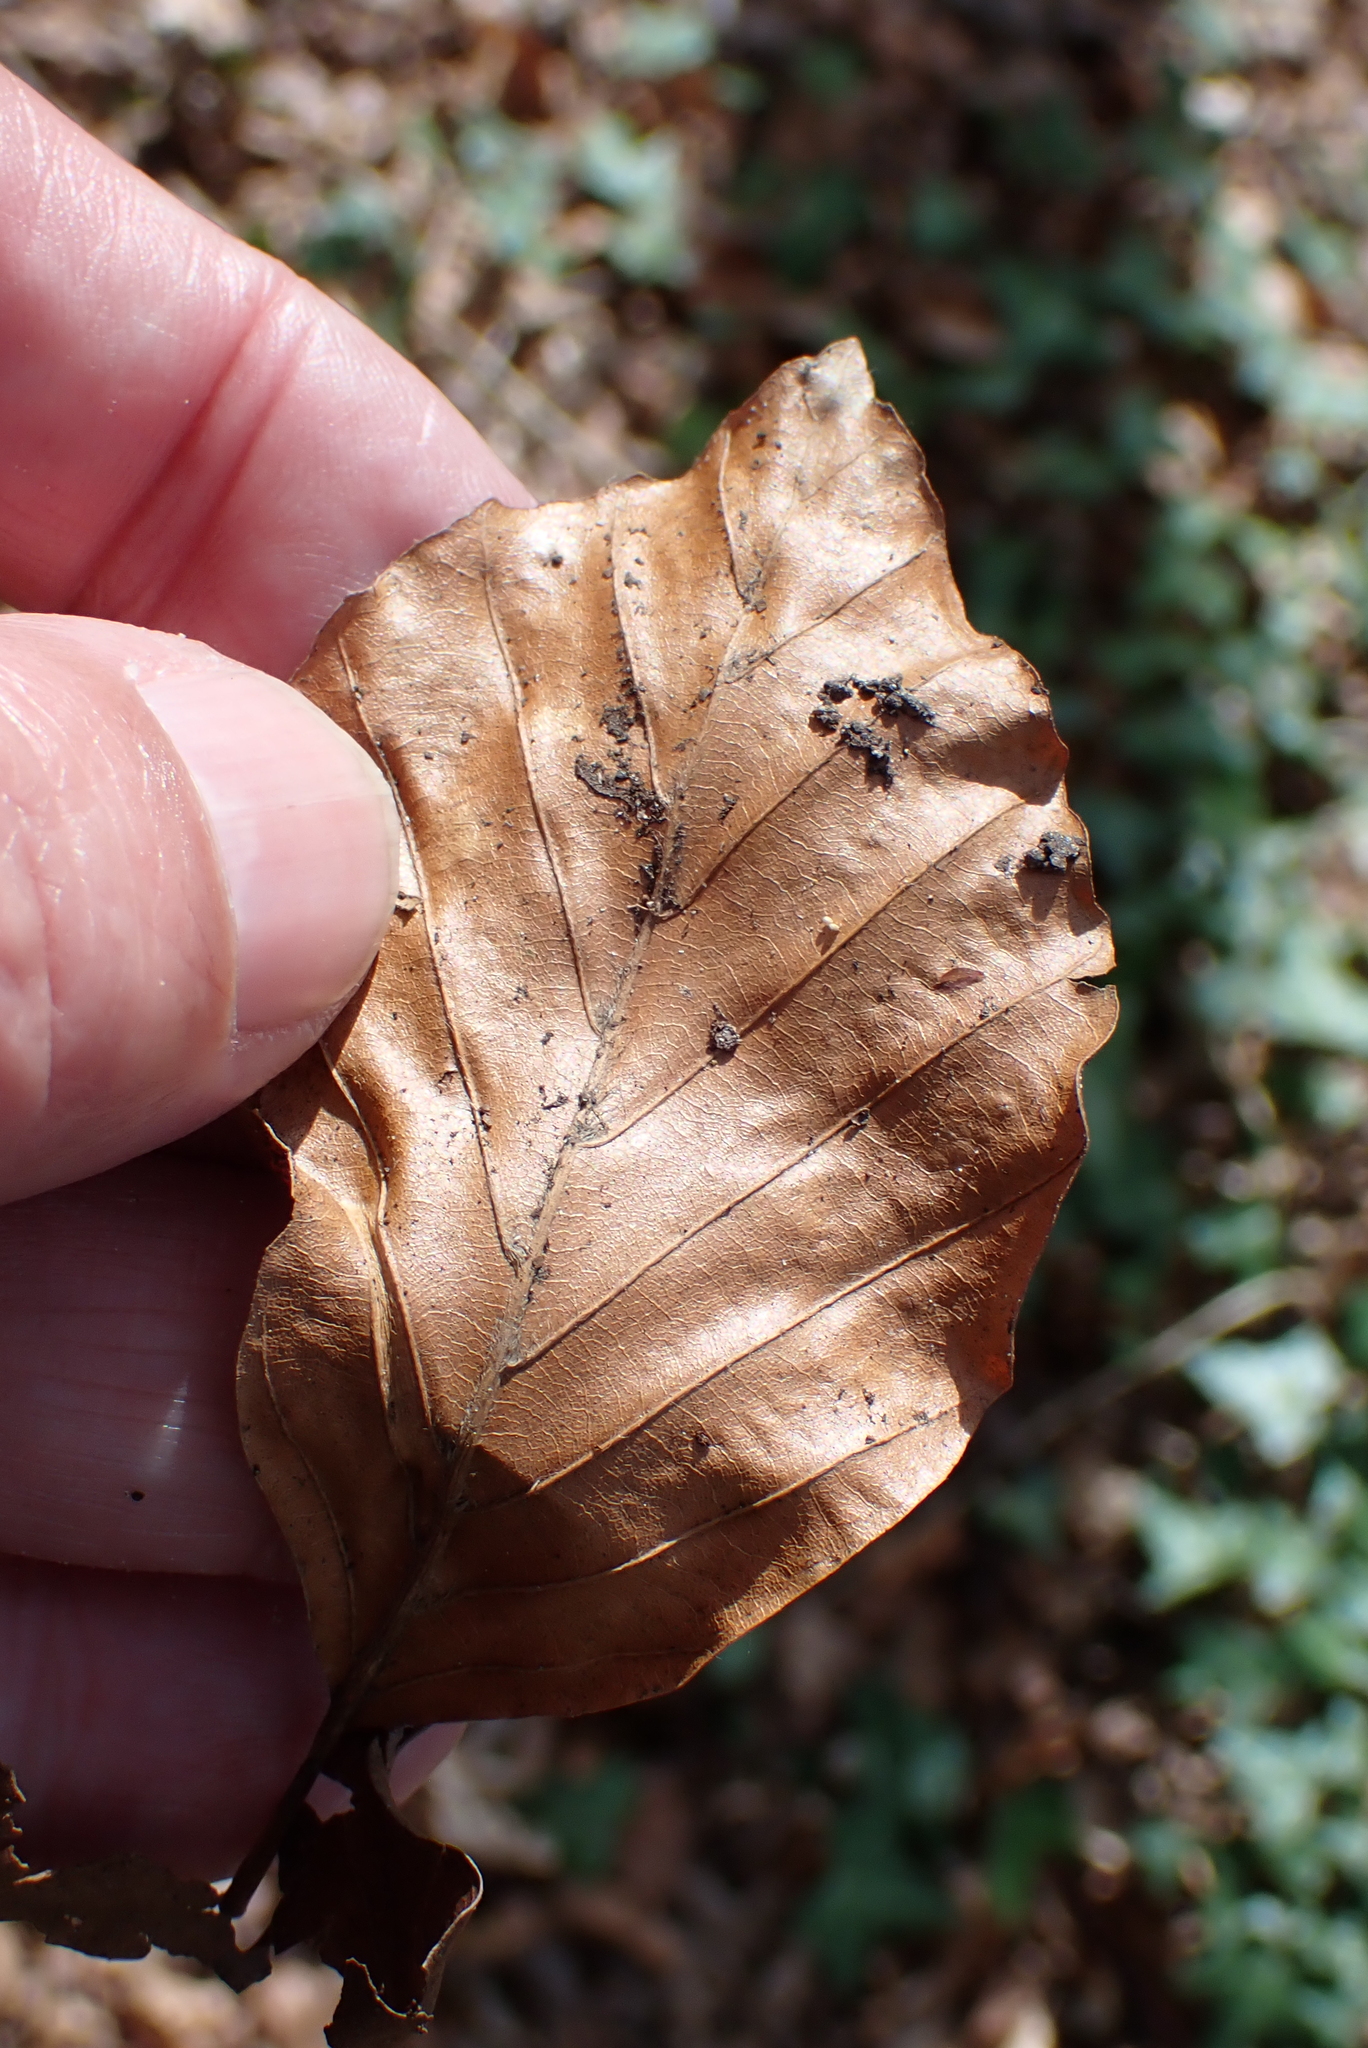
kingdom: Plantae
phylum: Tracheophyta
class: Magnoliopsida
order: Fagales
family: Fagaceae
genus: Fagus
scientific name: Fagus sylvatica
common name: Beech
